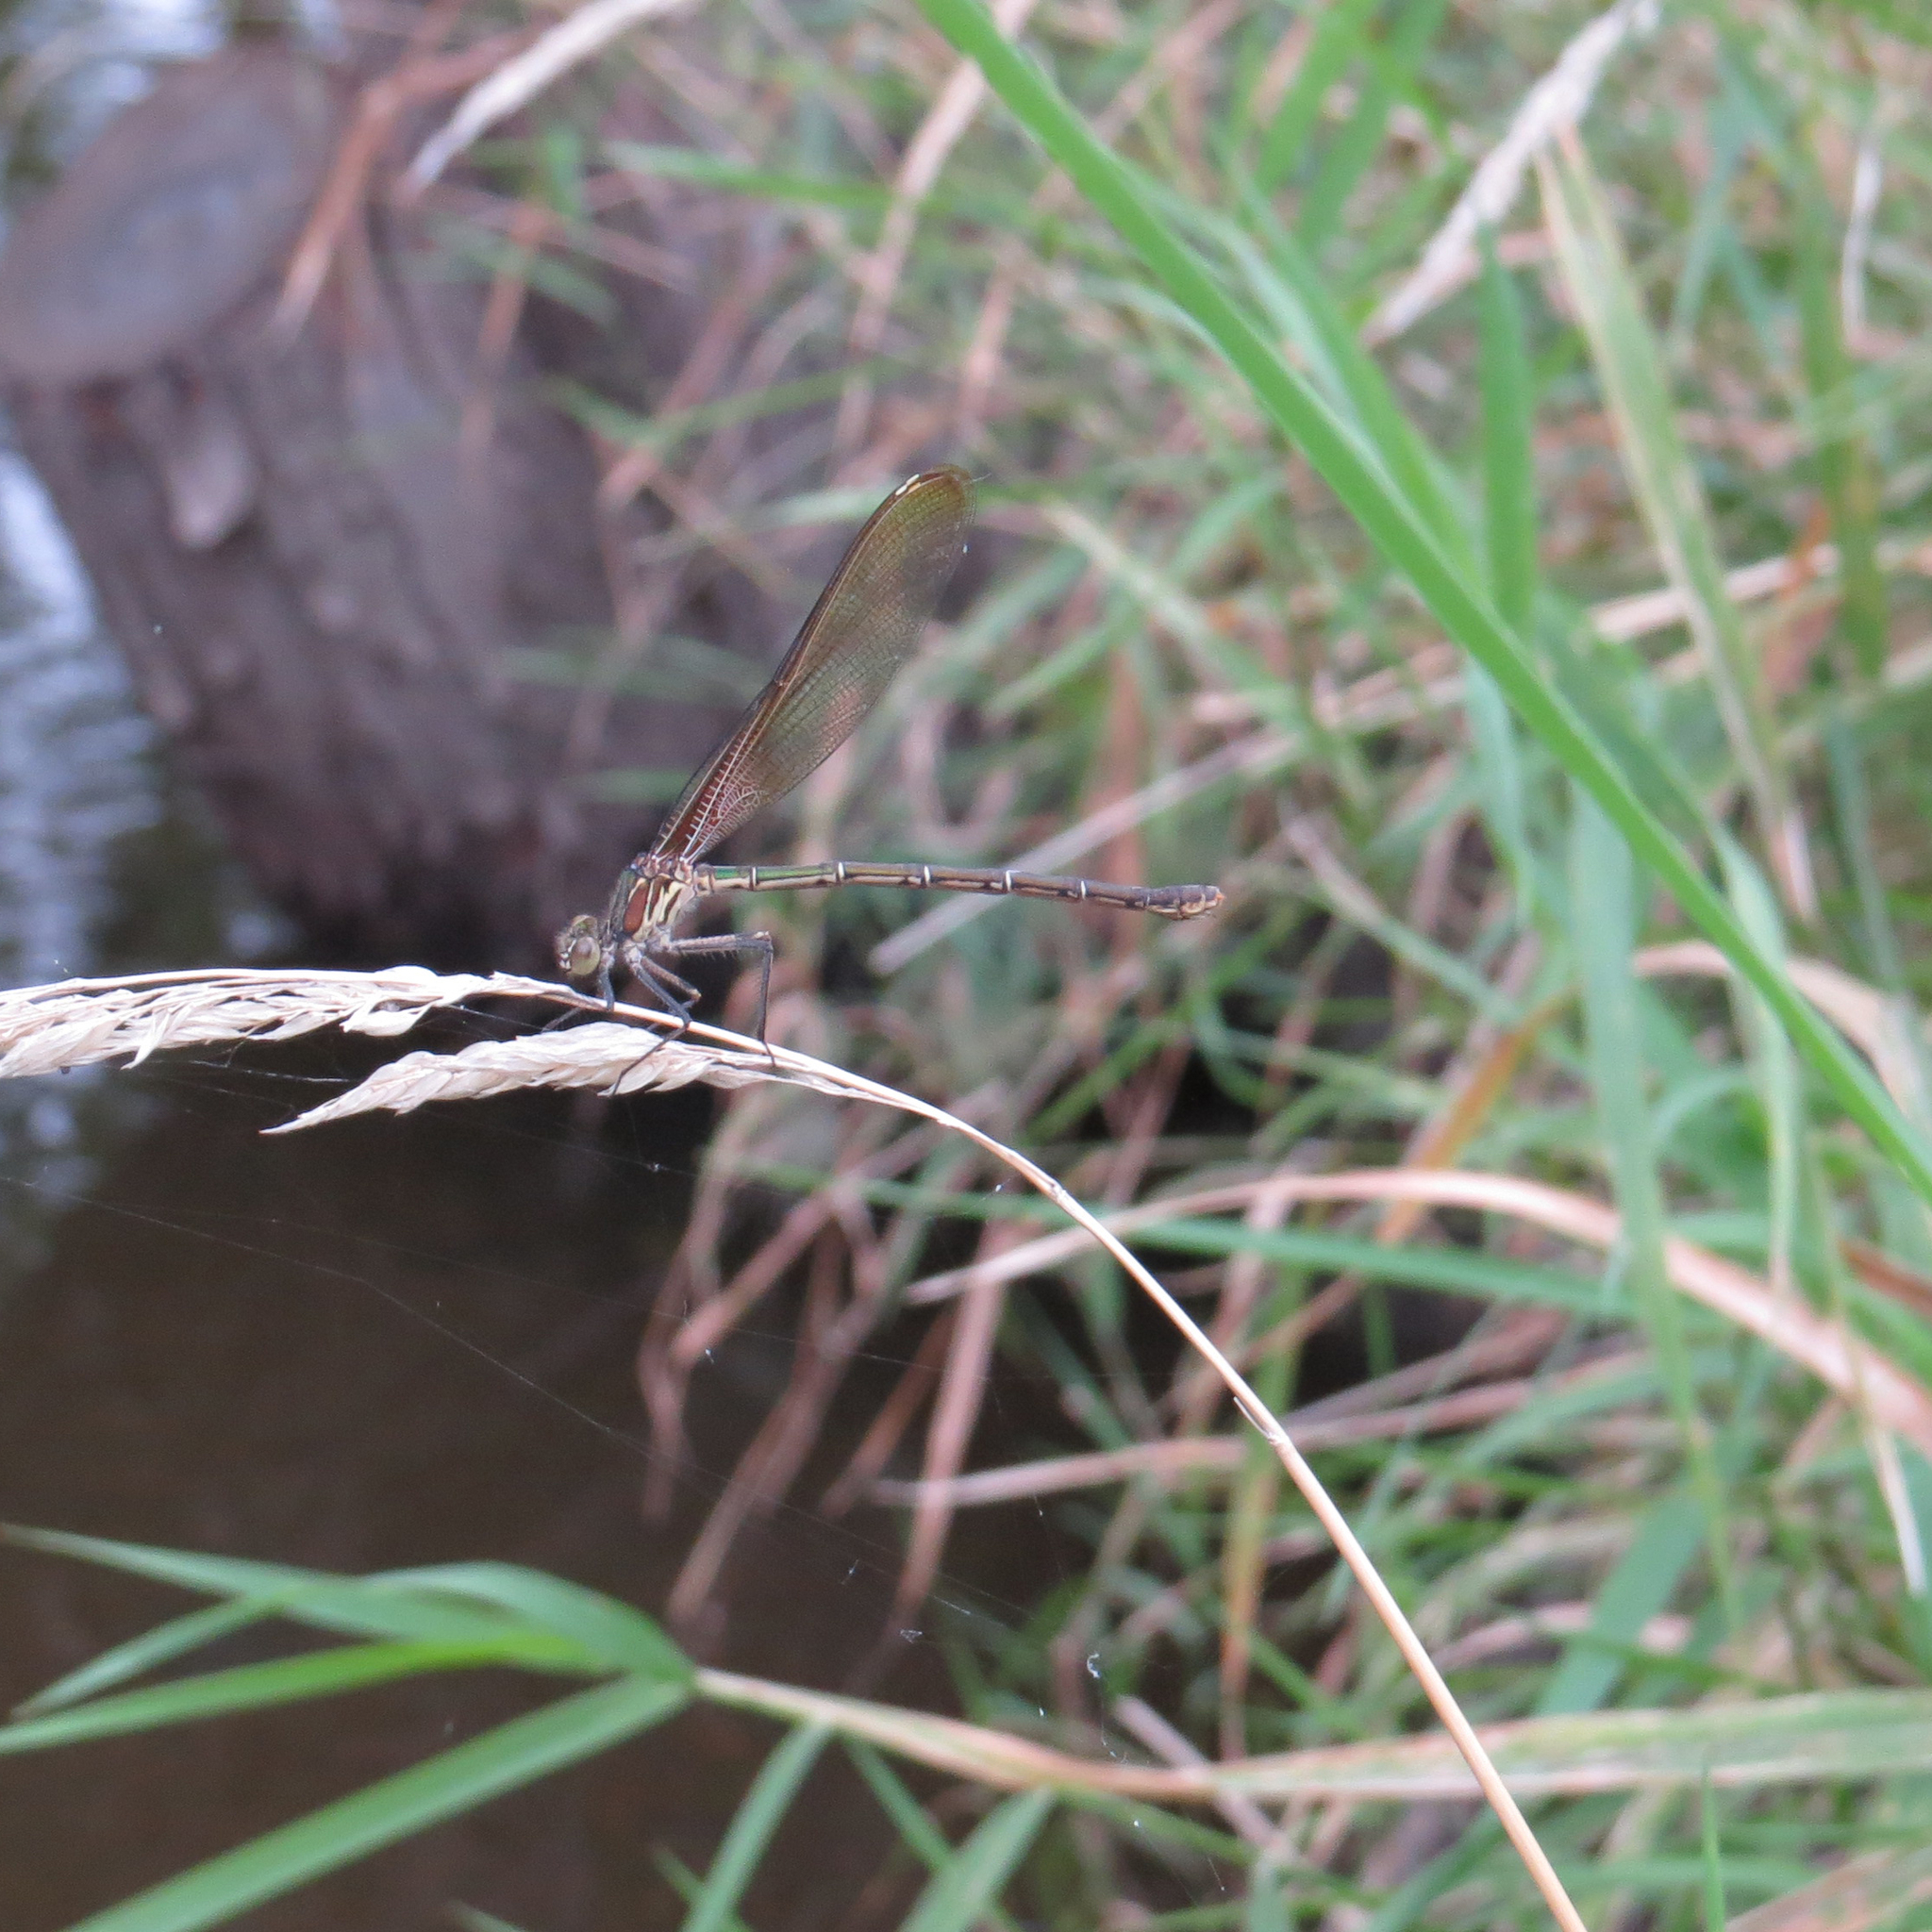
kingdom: Animalia
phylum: Arthropoda
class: Insecta
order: Odonata
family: Calopterygidae
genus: Hetaerina
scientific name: Hetaerina americana
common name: American rubyspot
